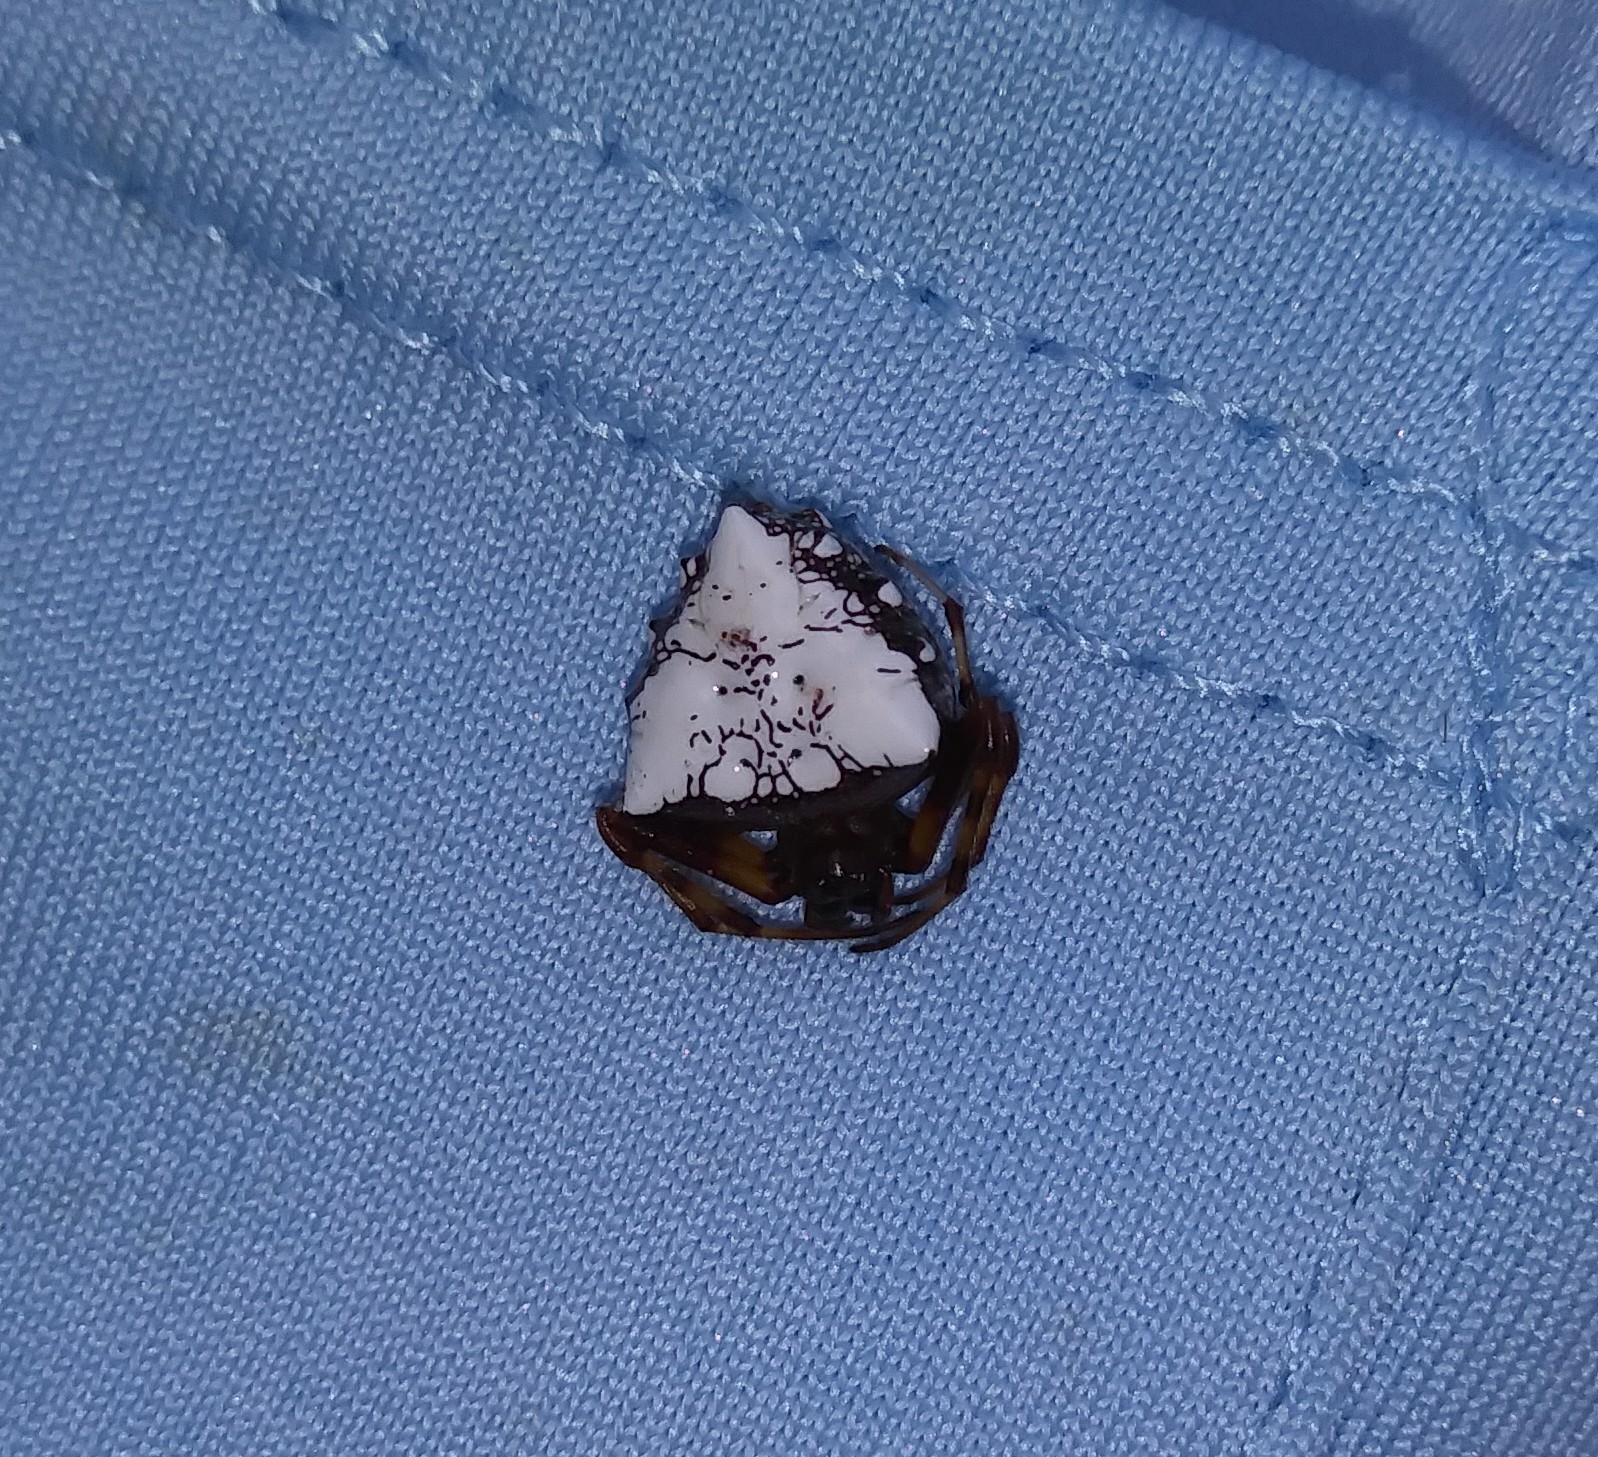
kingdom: Animalia
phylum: Arthropoda
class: Arachnida
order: Araneae
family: Araneidae
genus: Verrucosa
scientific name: Verrucosa arenata
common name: Orb weavers
